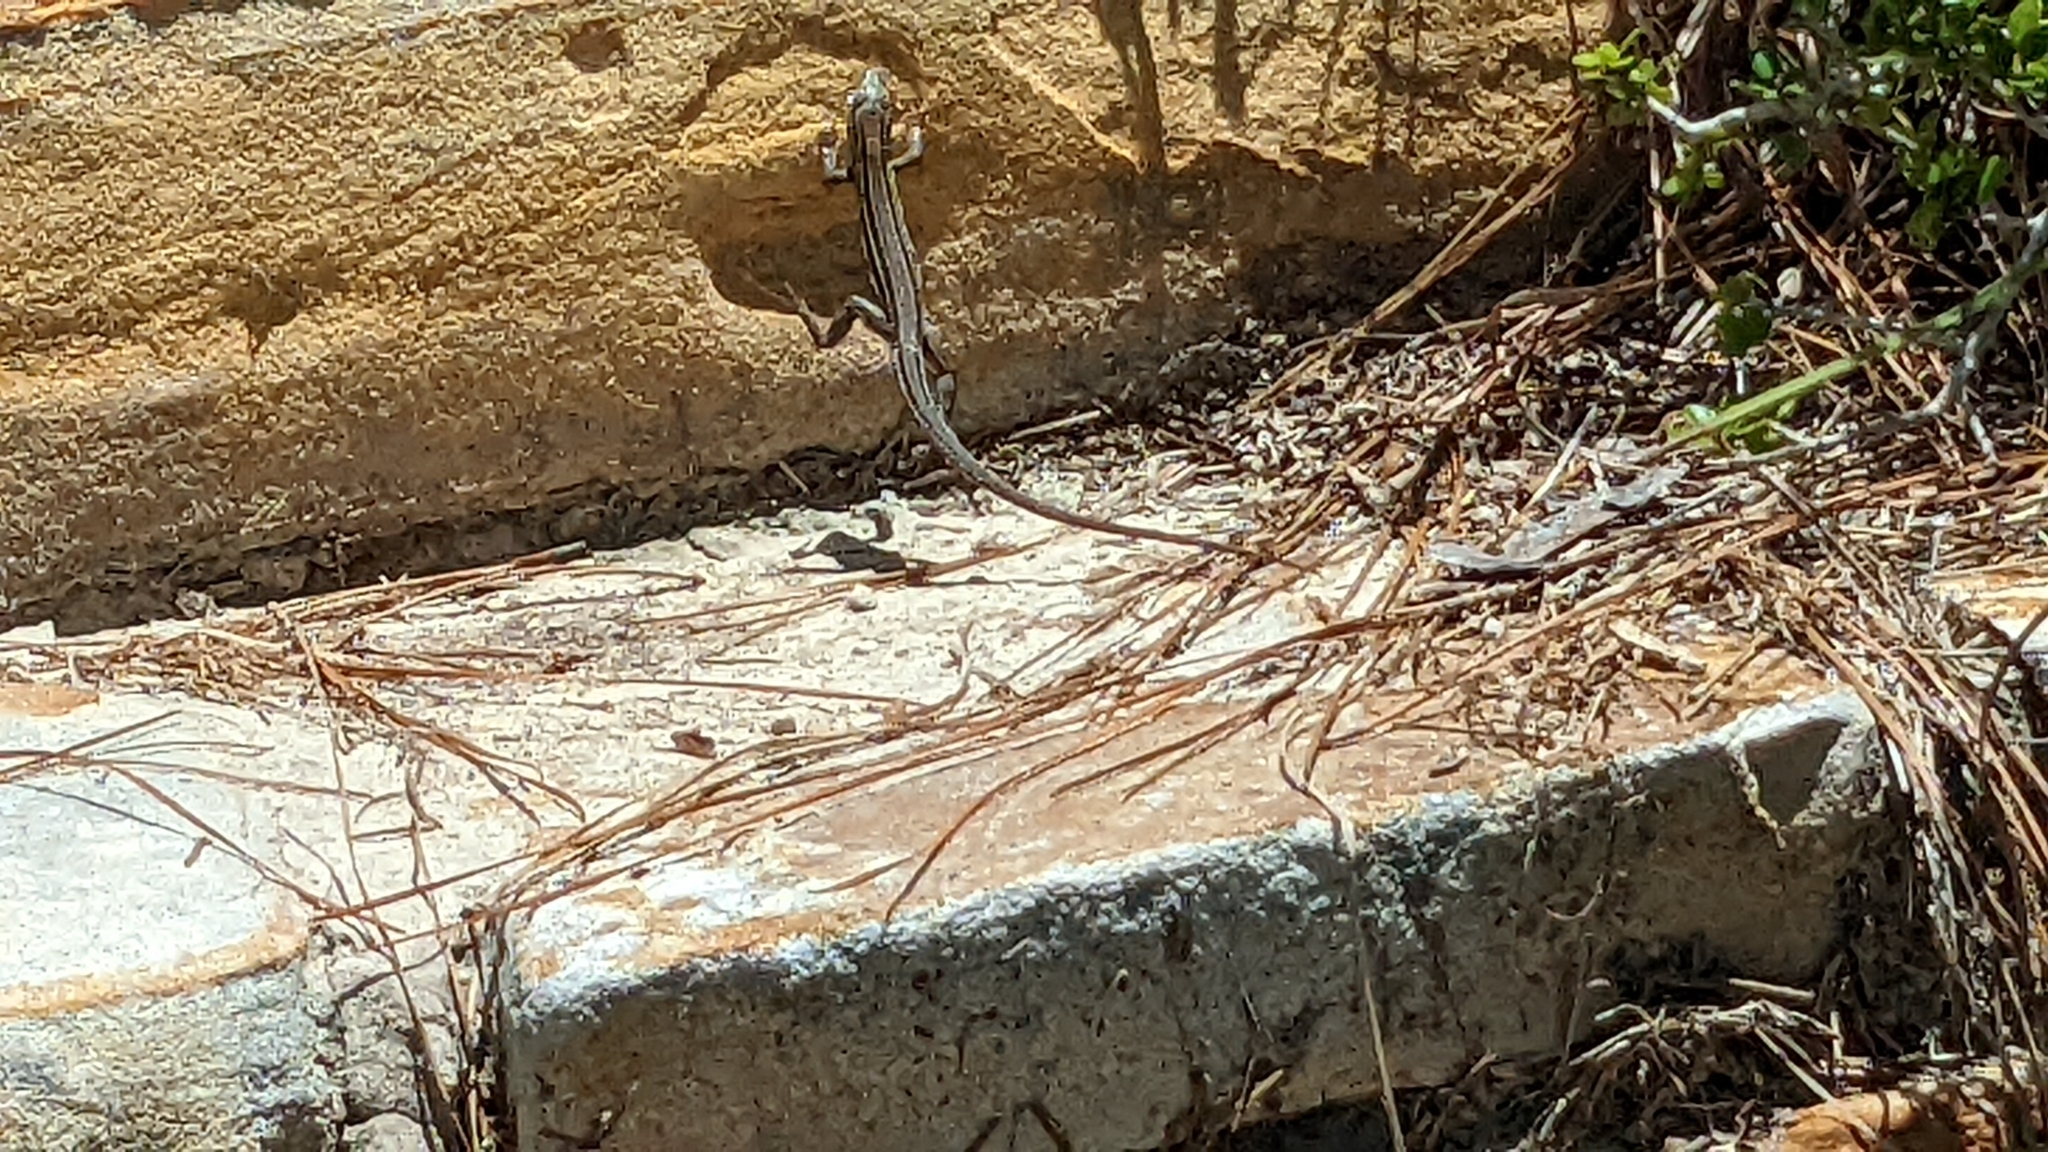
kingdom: Animalia
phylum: Chordata
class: Squamata
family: Teiidae
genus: Aspidoscelis
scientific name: Aspidoscelis sexlineatus
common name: Six-lined racerunner
